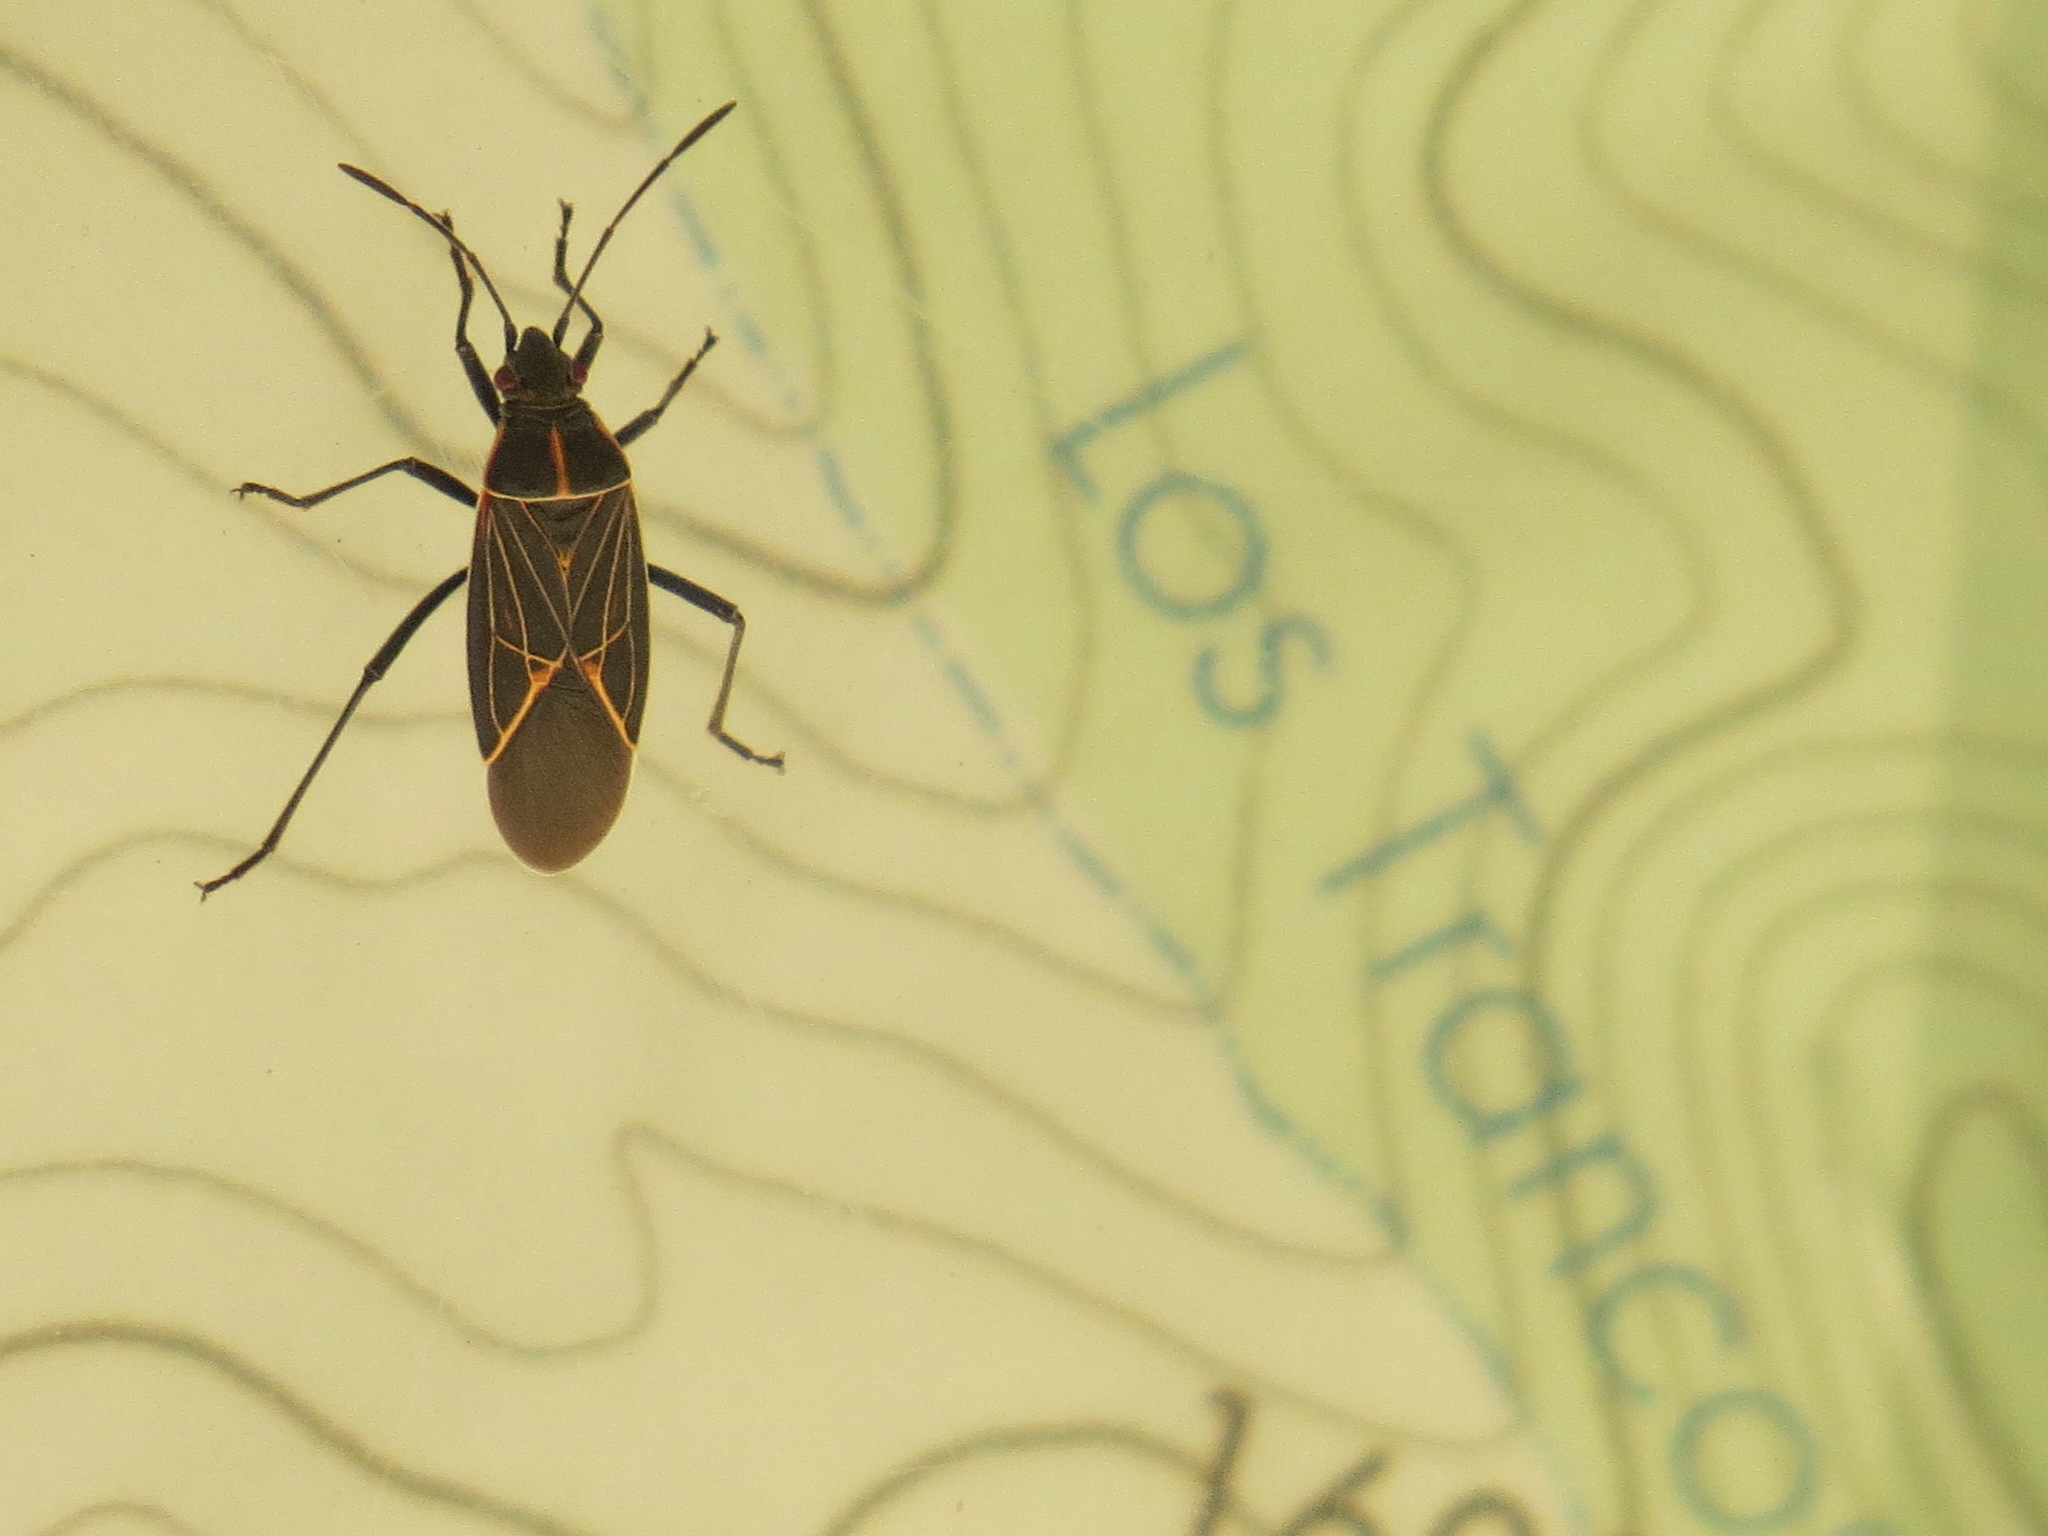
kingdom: Animalia
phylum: Arthropoda
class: Insecta
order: Hemiptera
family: Rhopalidae
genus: Boisea
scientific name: Boisea rubrolineata
